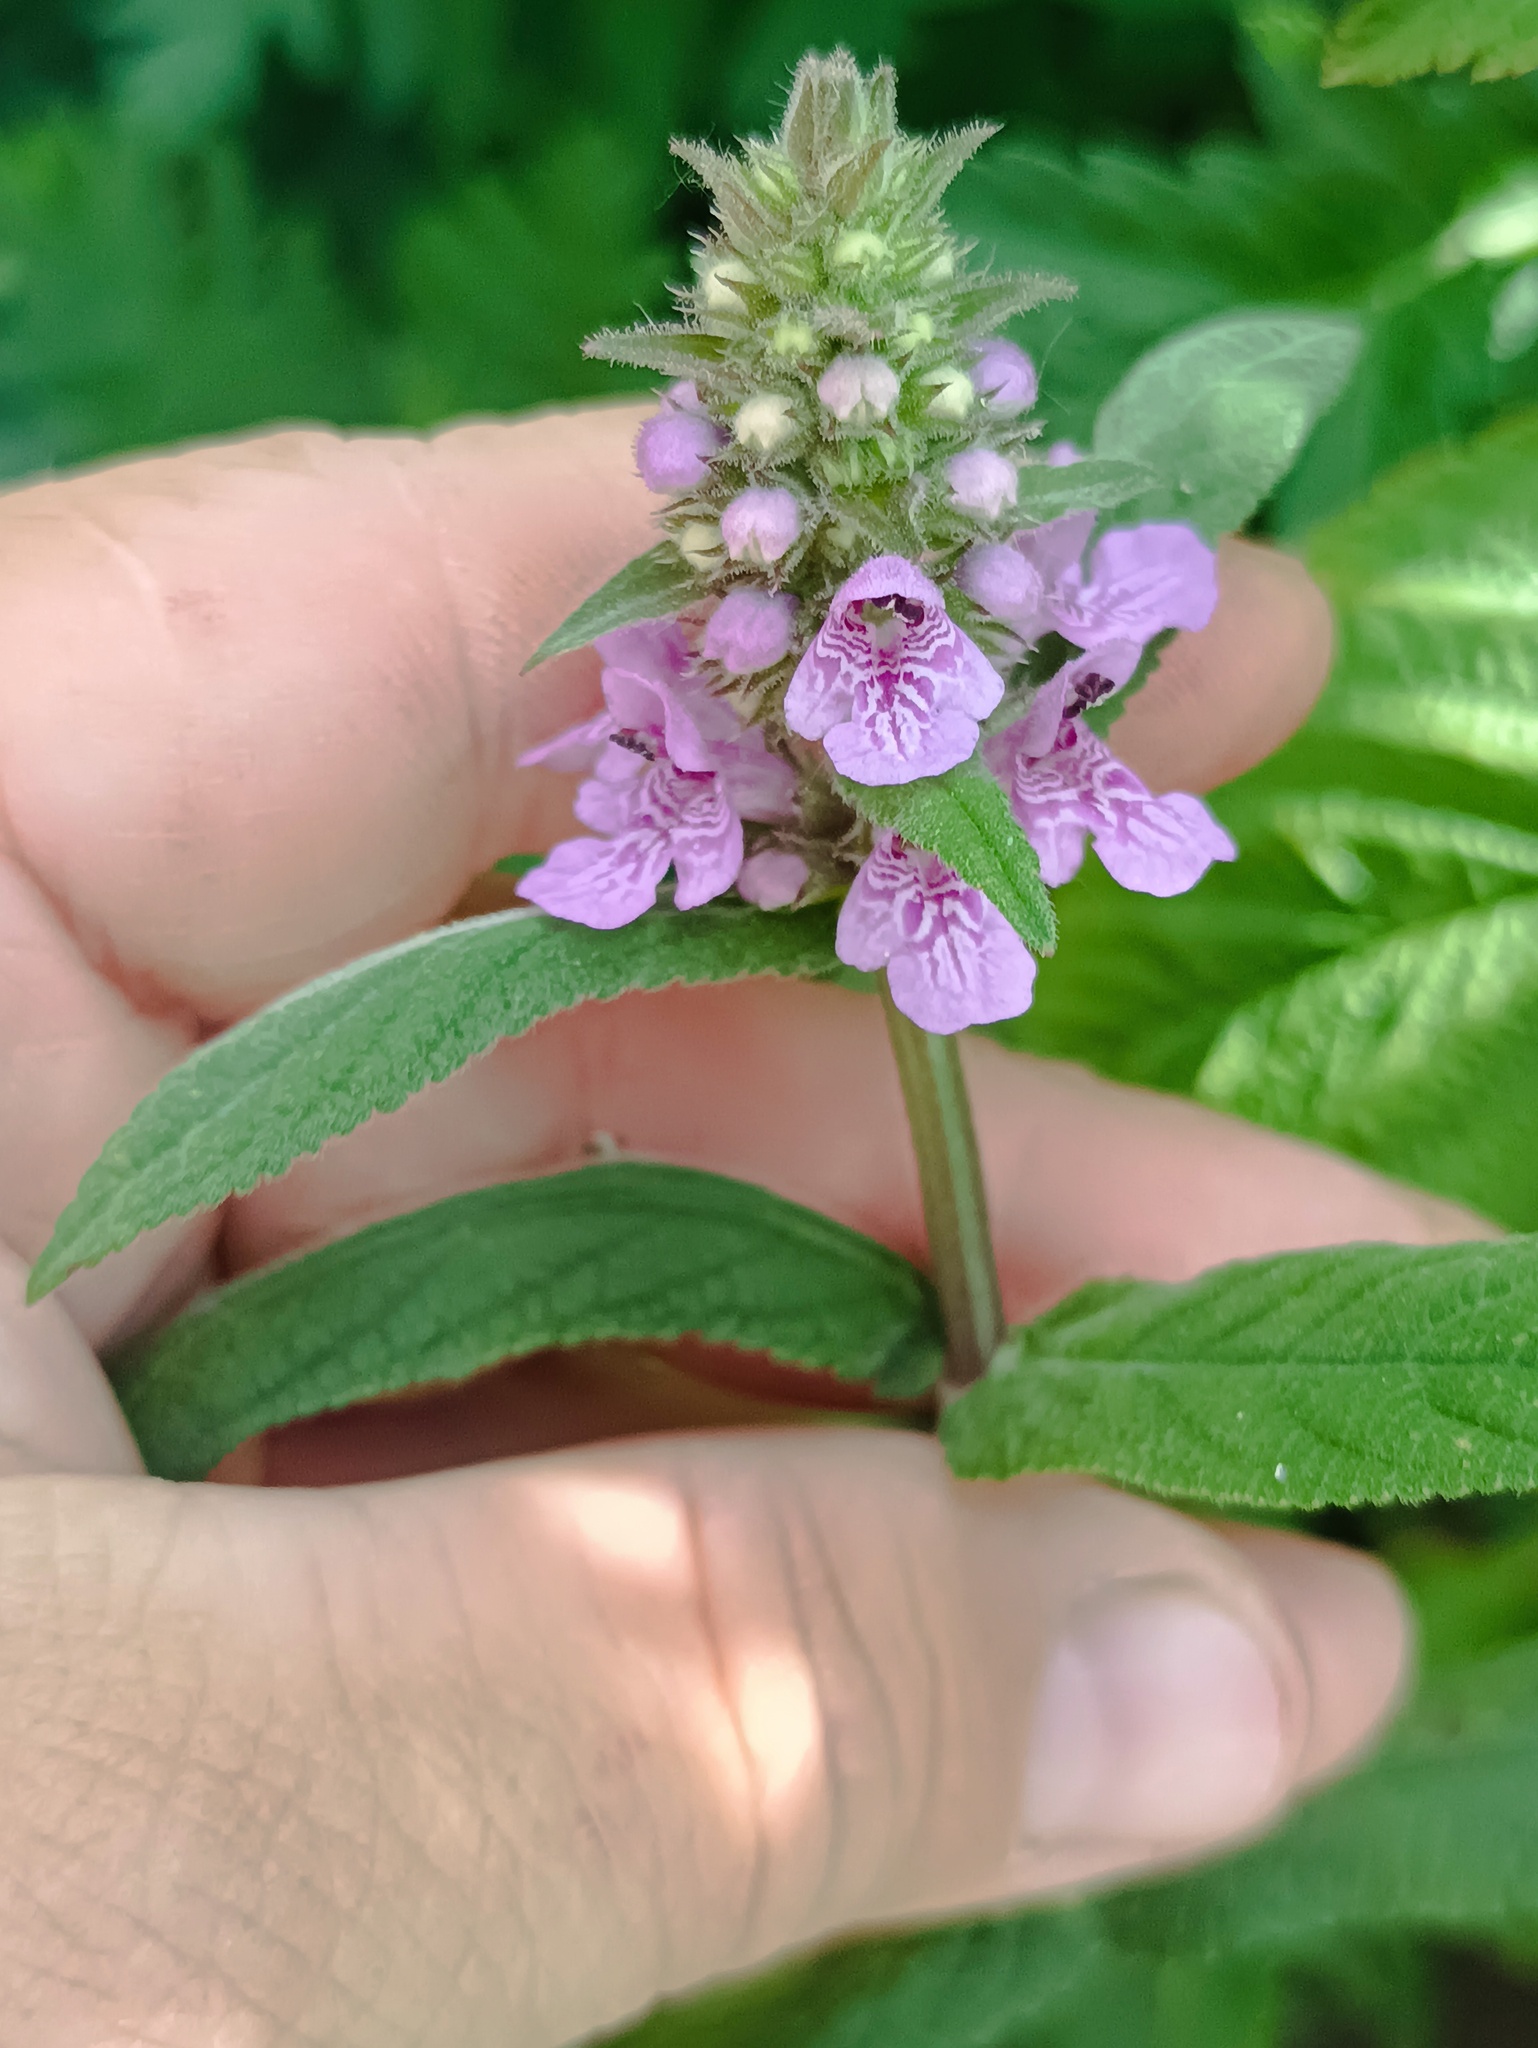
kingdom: Plantae
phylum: Tracheophyta
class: Magnoliopsida
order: Lamiales
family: Lamiaceae
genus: Stachys
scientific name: Stachys palustris
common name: Marsh woundwort
